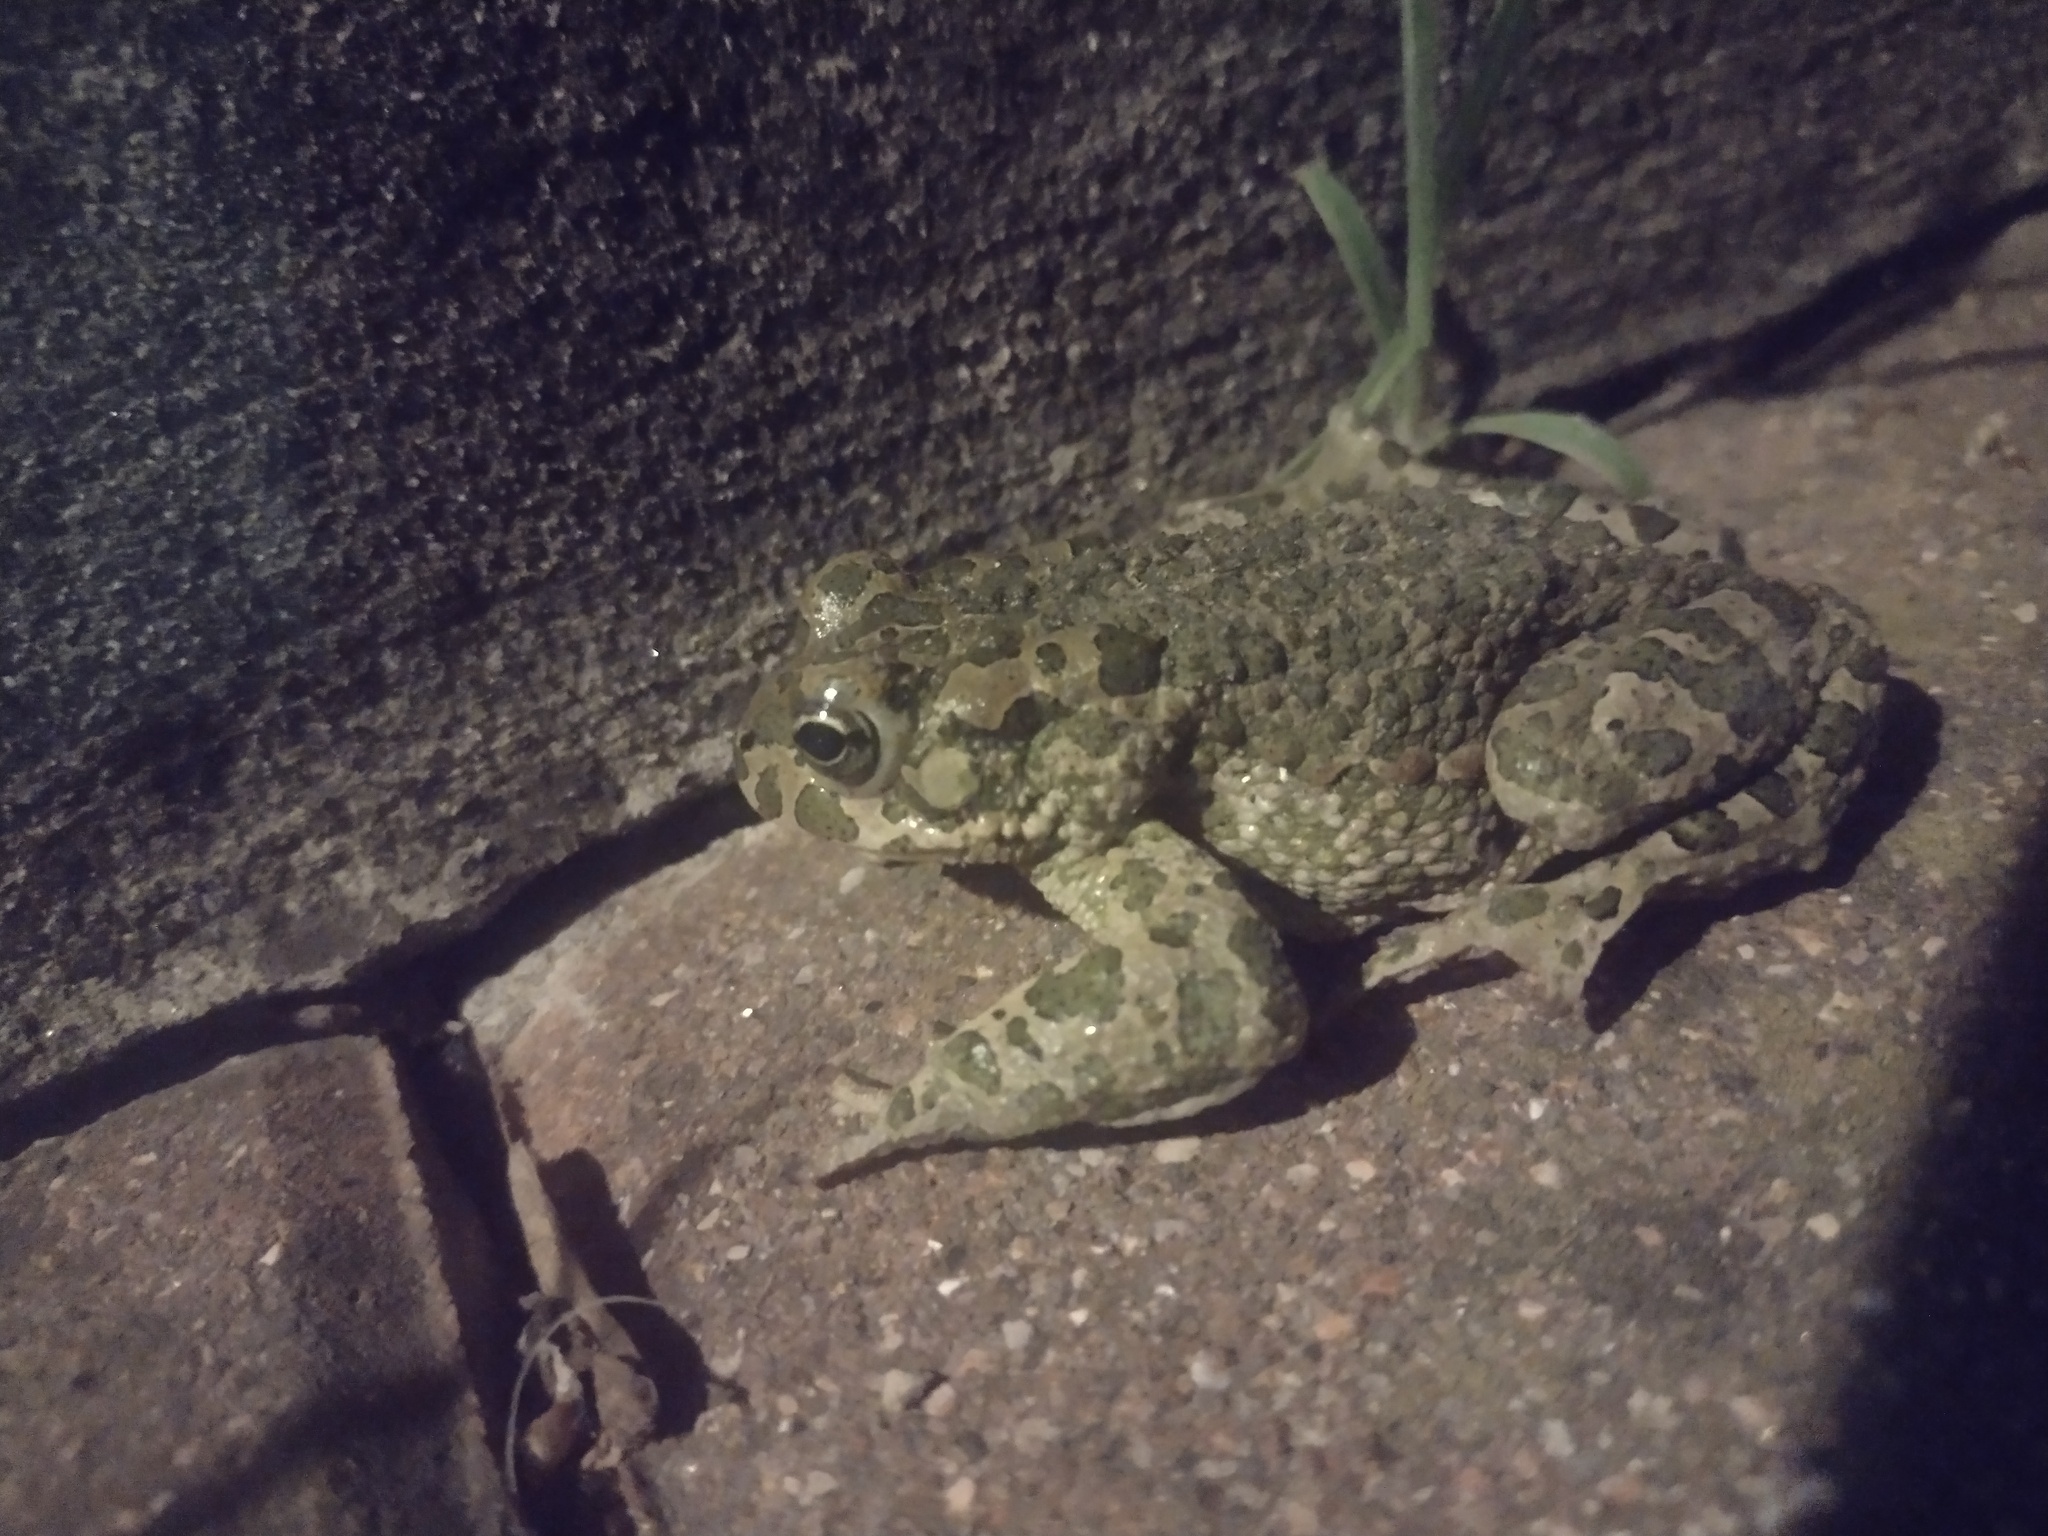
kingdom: Animalia
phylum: Chordata
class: Amphibia
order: Anura
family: Bufonidae
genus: Bufotes
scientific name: Bufotes viridis
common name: European green toad
